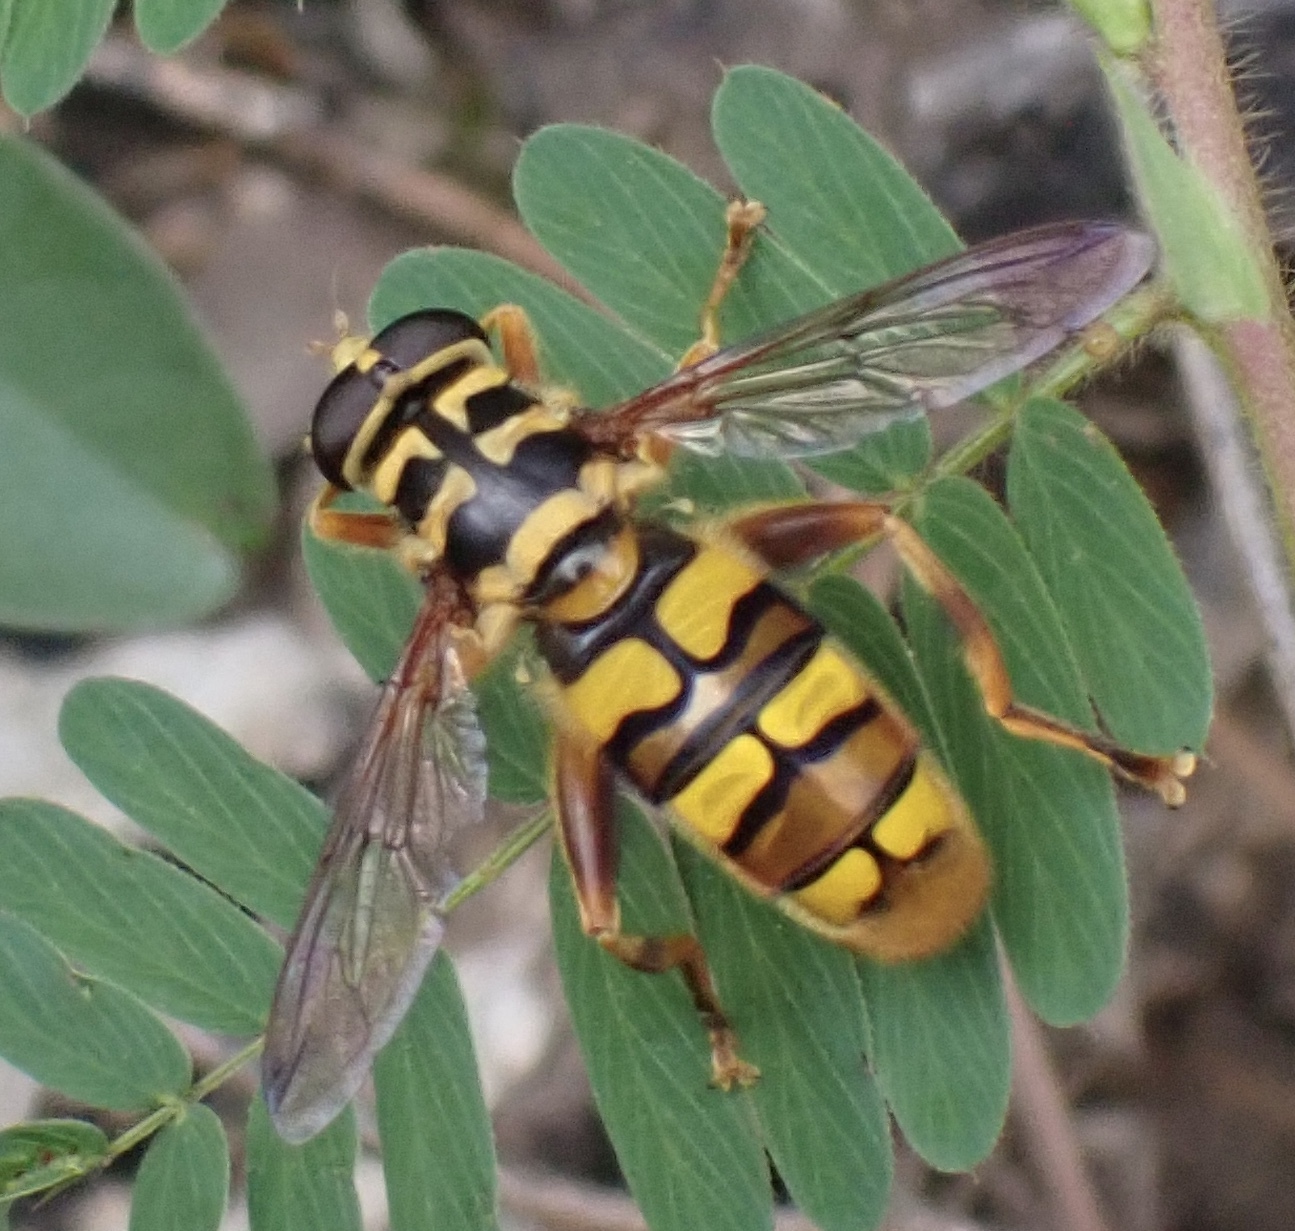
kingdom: Animalia
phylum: Arthropoda
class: Insecta
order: Diptera
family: Syrphidae
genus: Milesia
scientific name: Milesia virginiensis
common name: Virginia giant
